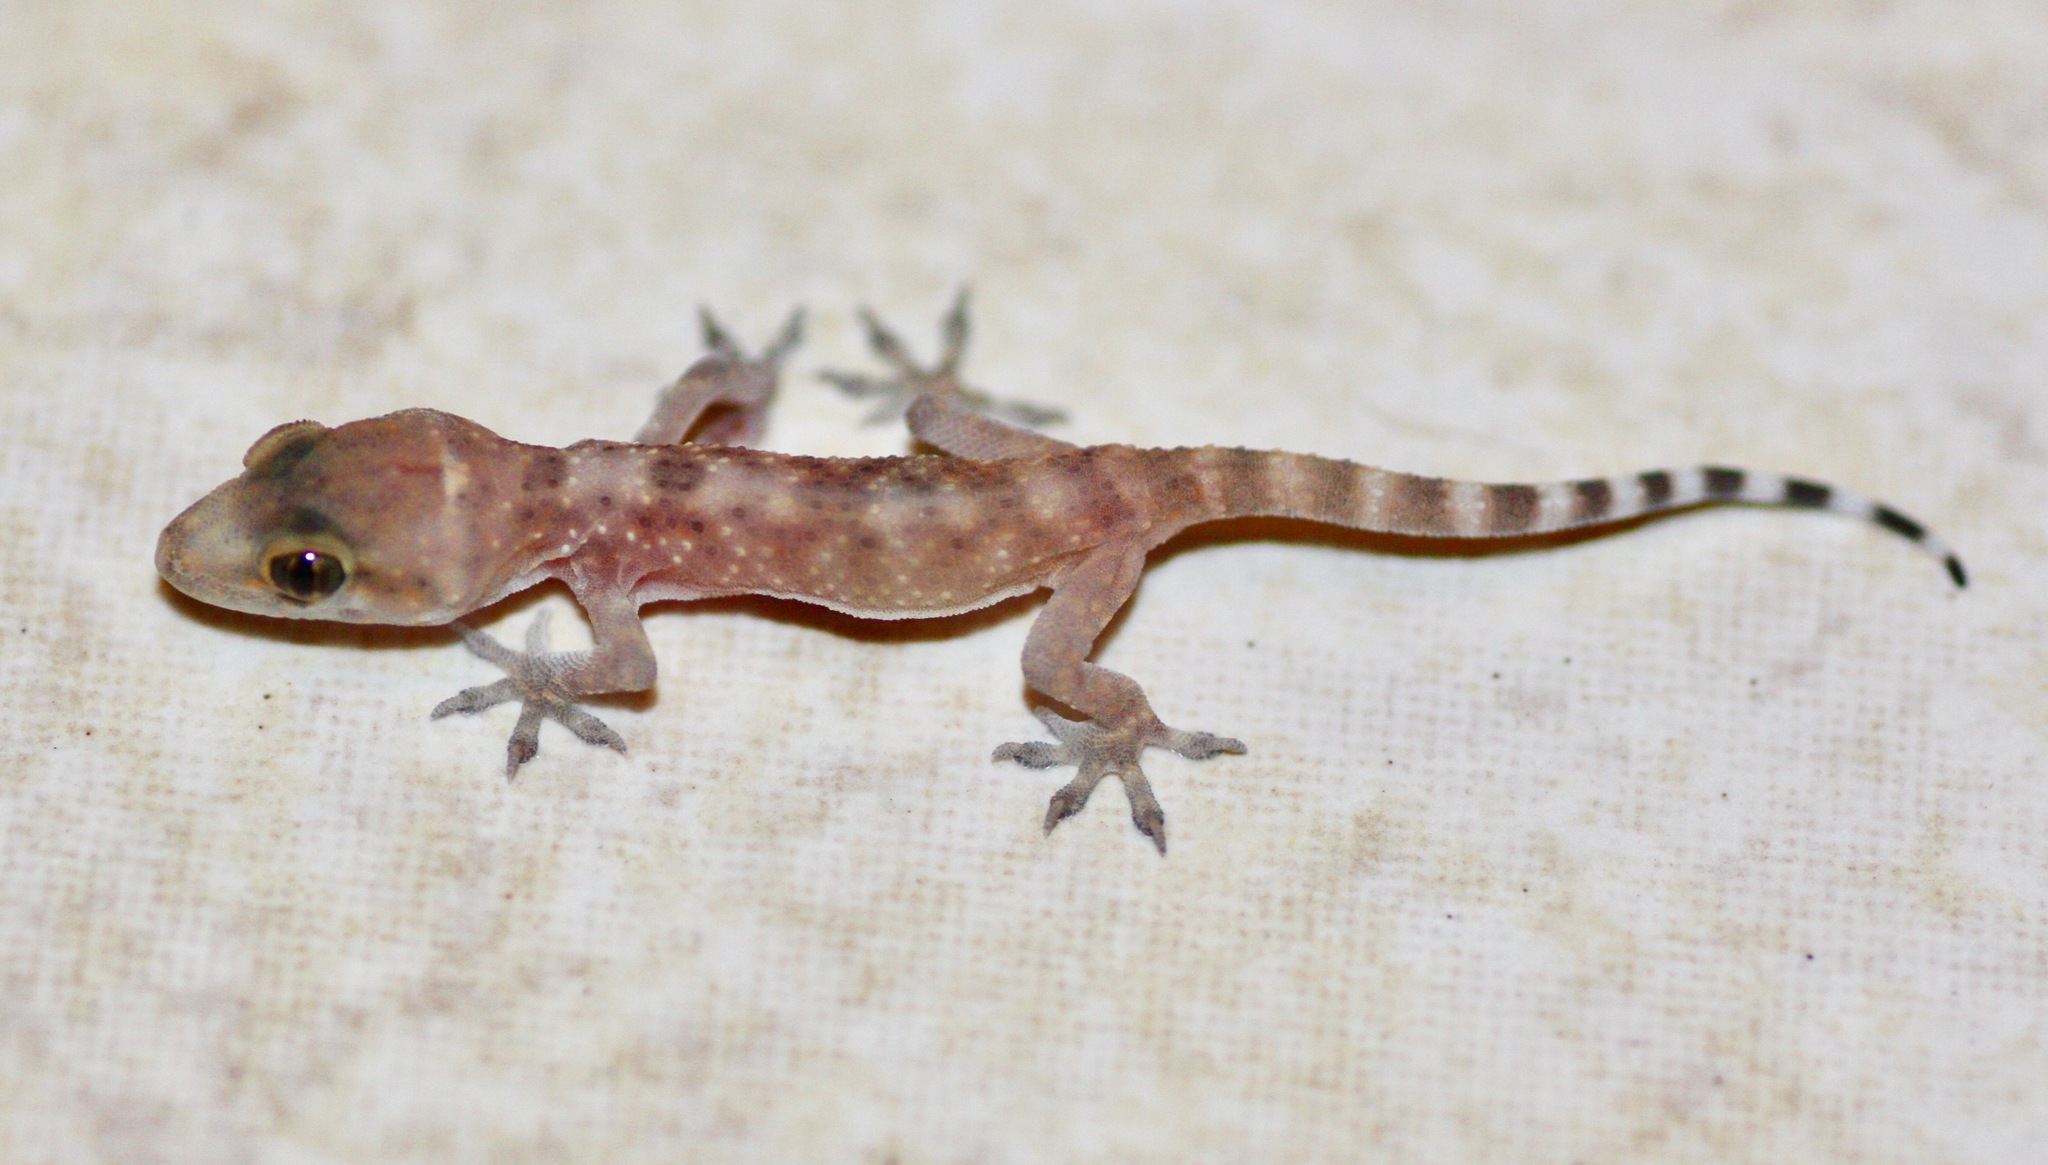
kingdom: Animalia
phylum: Chordata
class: Squamata
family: Gekkonidae
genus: Hemidactylus
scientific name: Hemidactylus turcicus
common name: Turkish gecko
